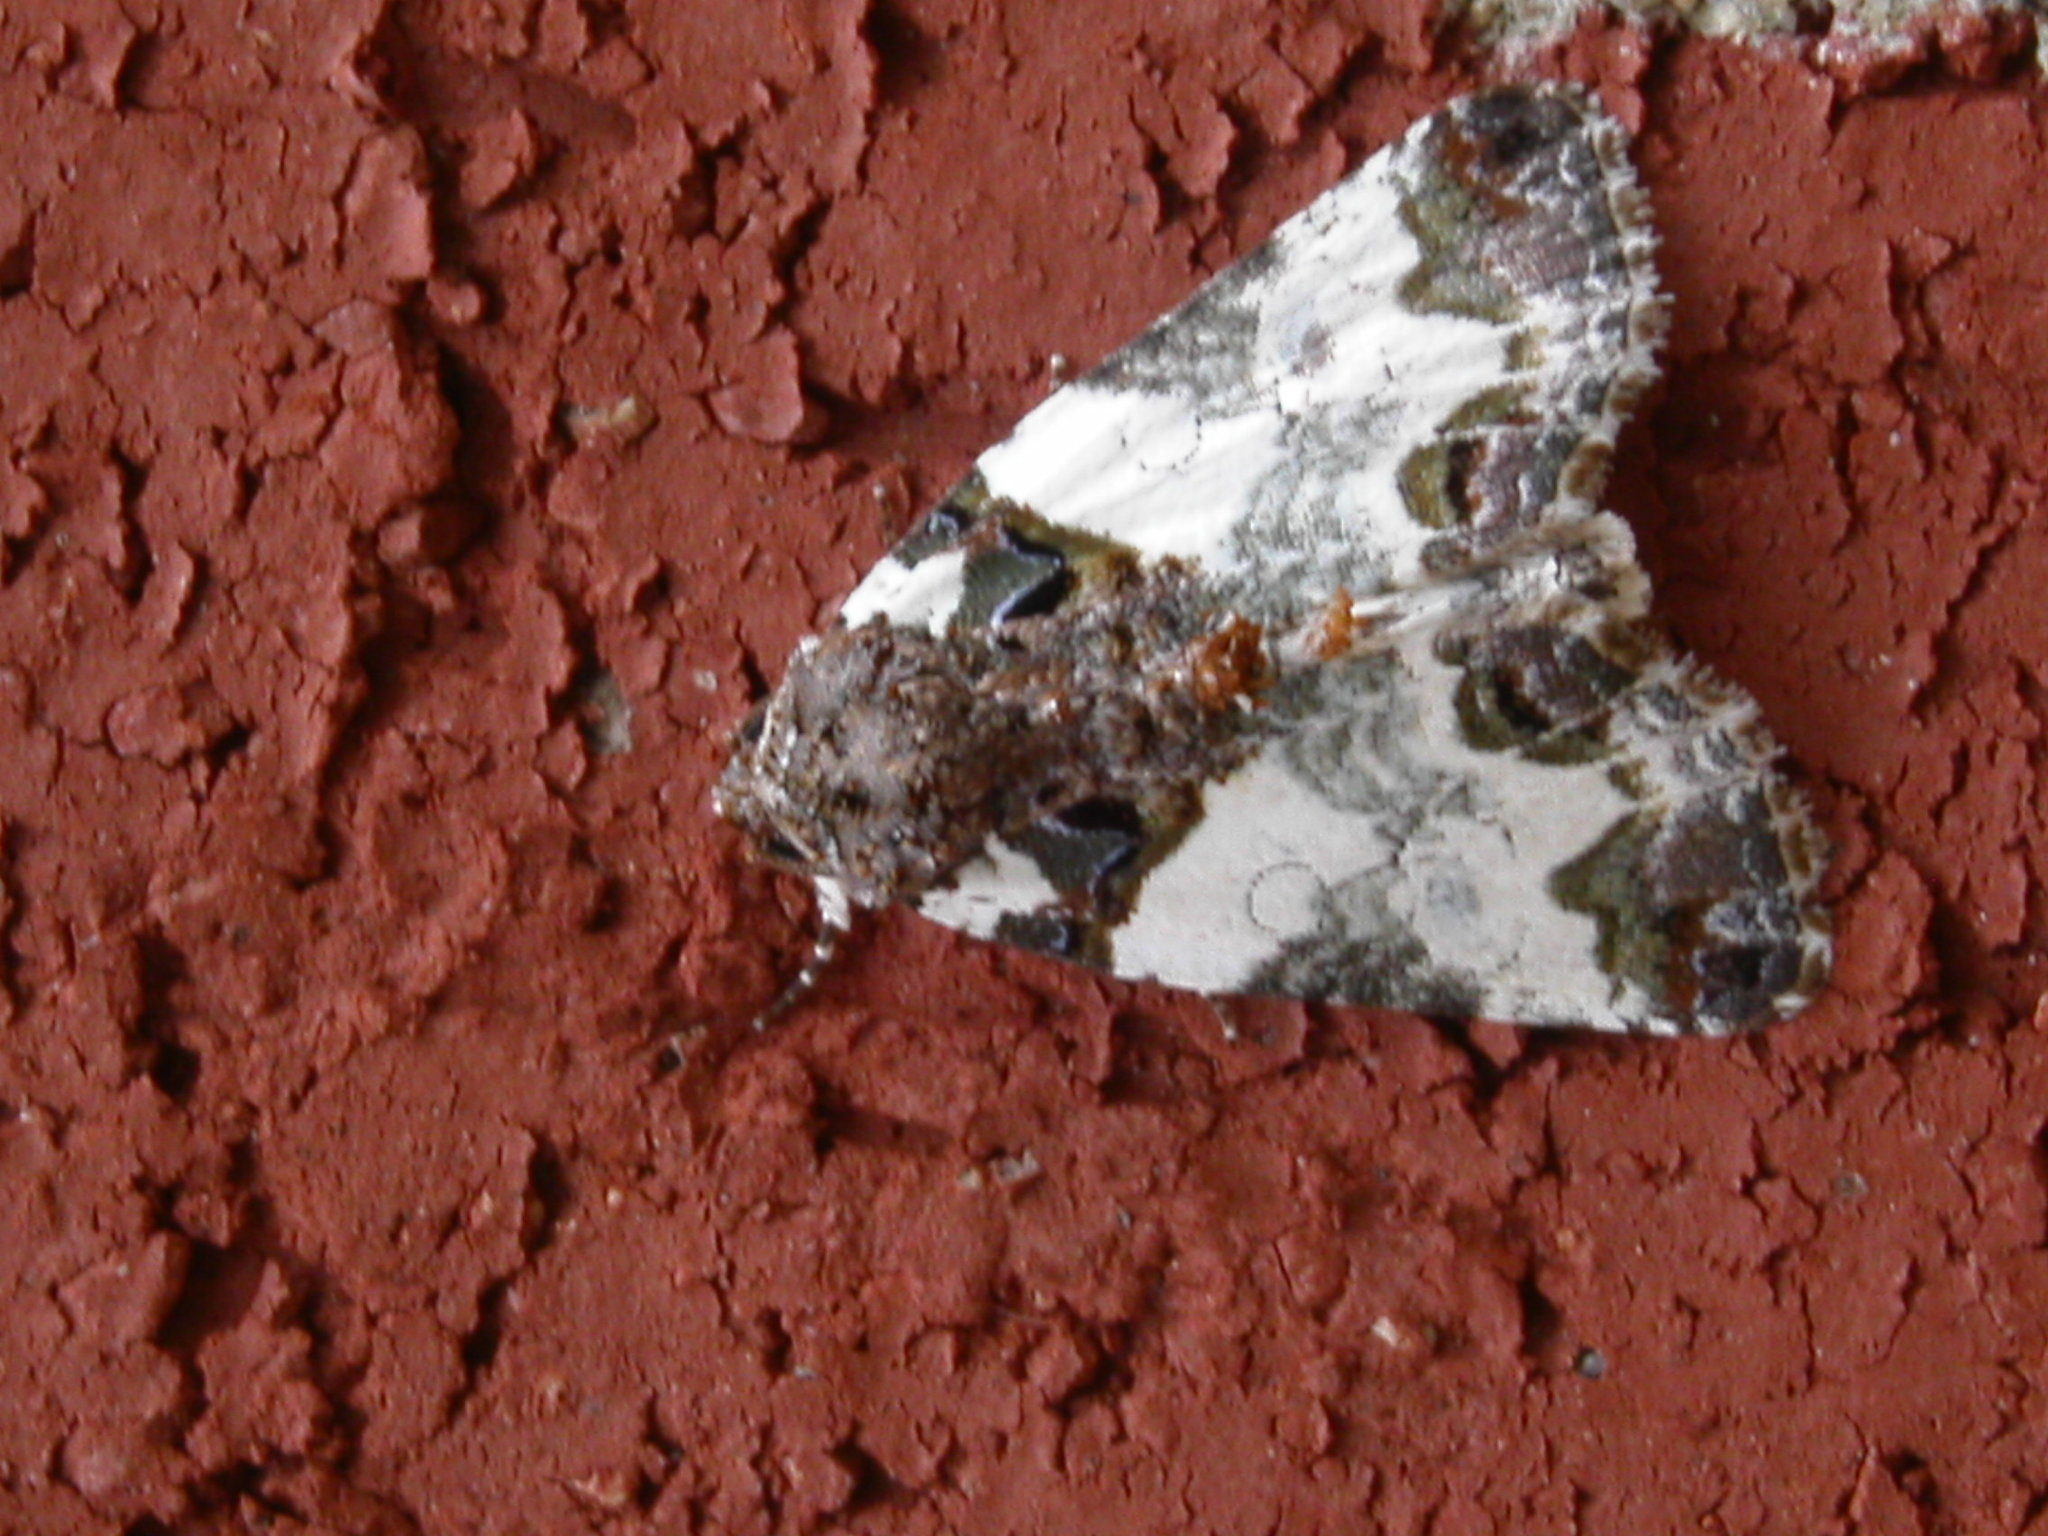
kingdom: Animalia
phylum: Arthropoda
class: Insecta
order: Lepidoptera
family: Noctuidae
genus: Cerma
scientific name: Cerma cerintha
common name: Tufted bird-dropping moth
